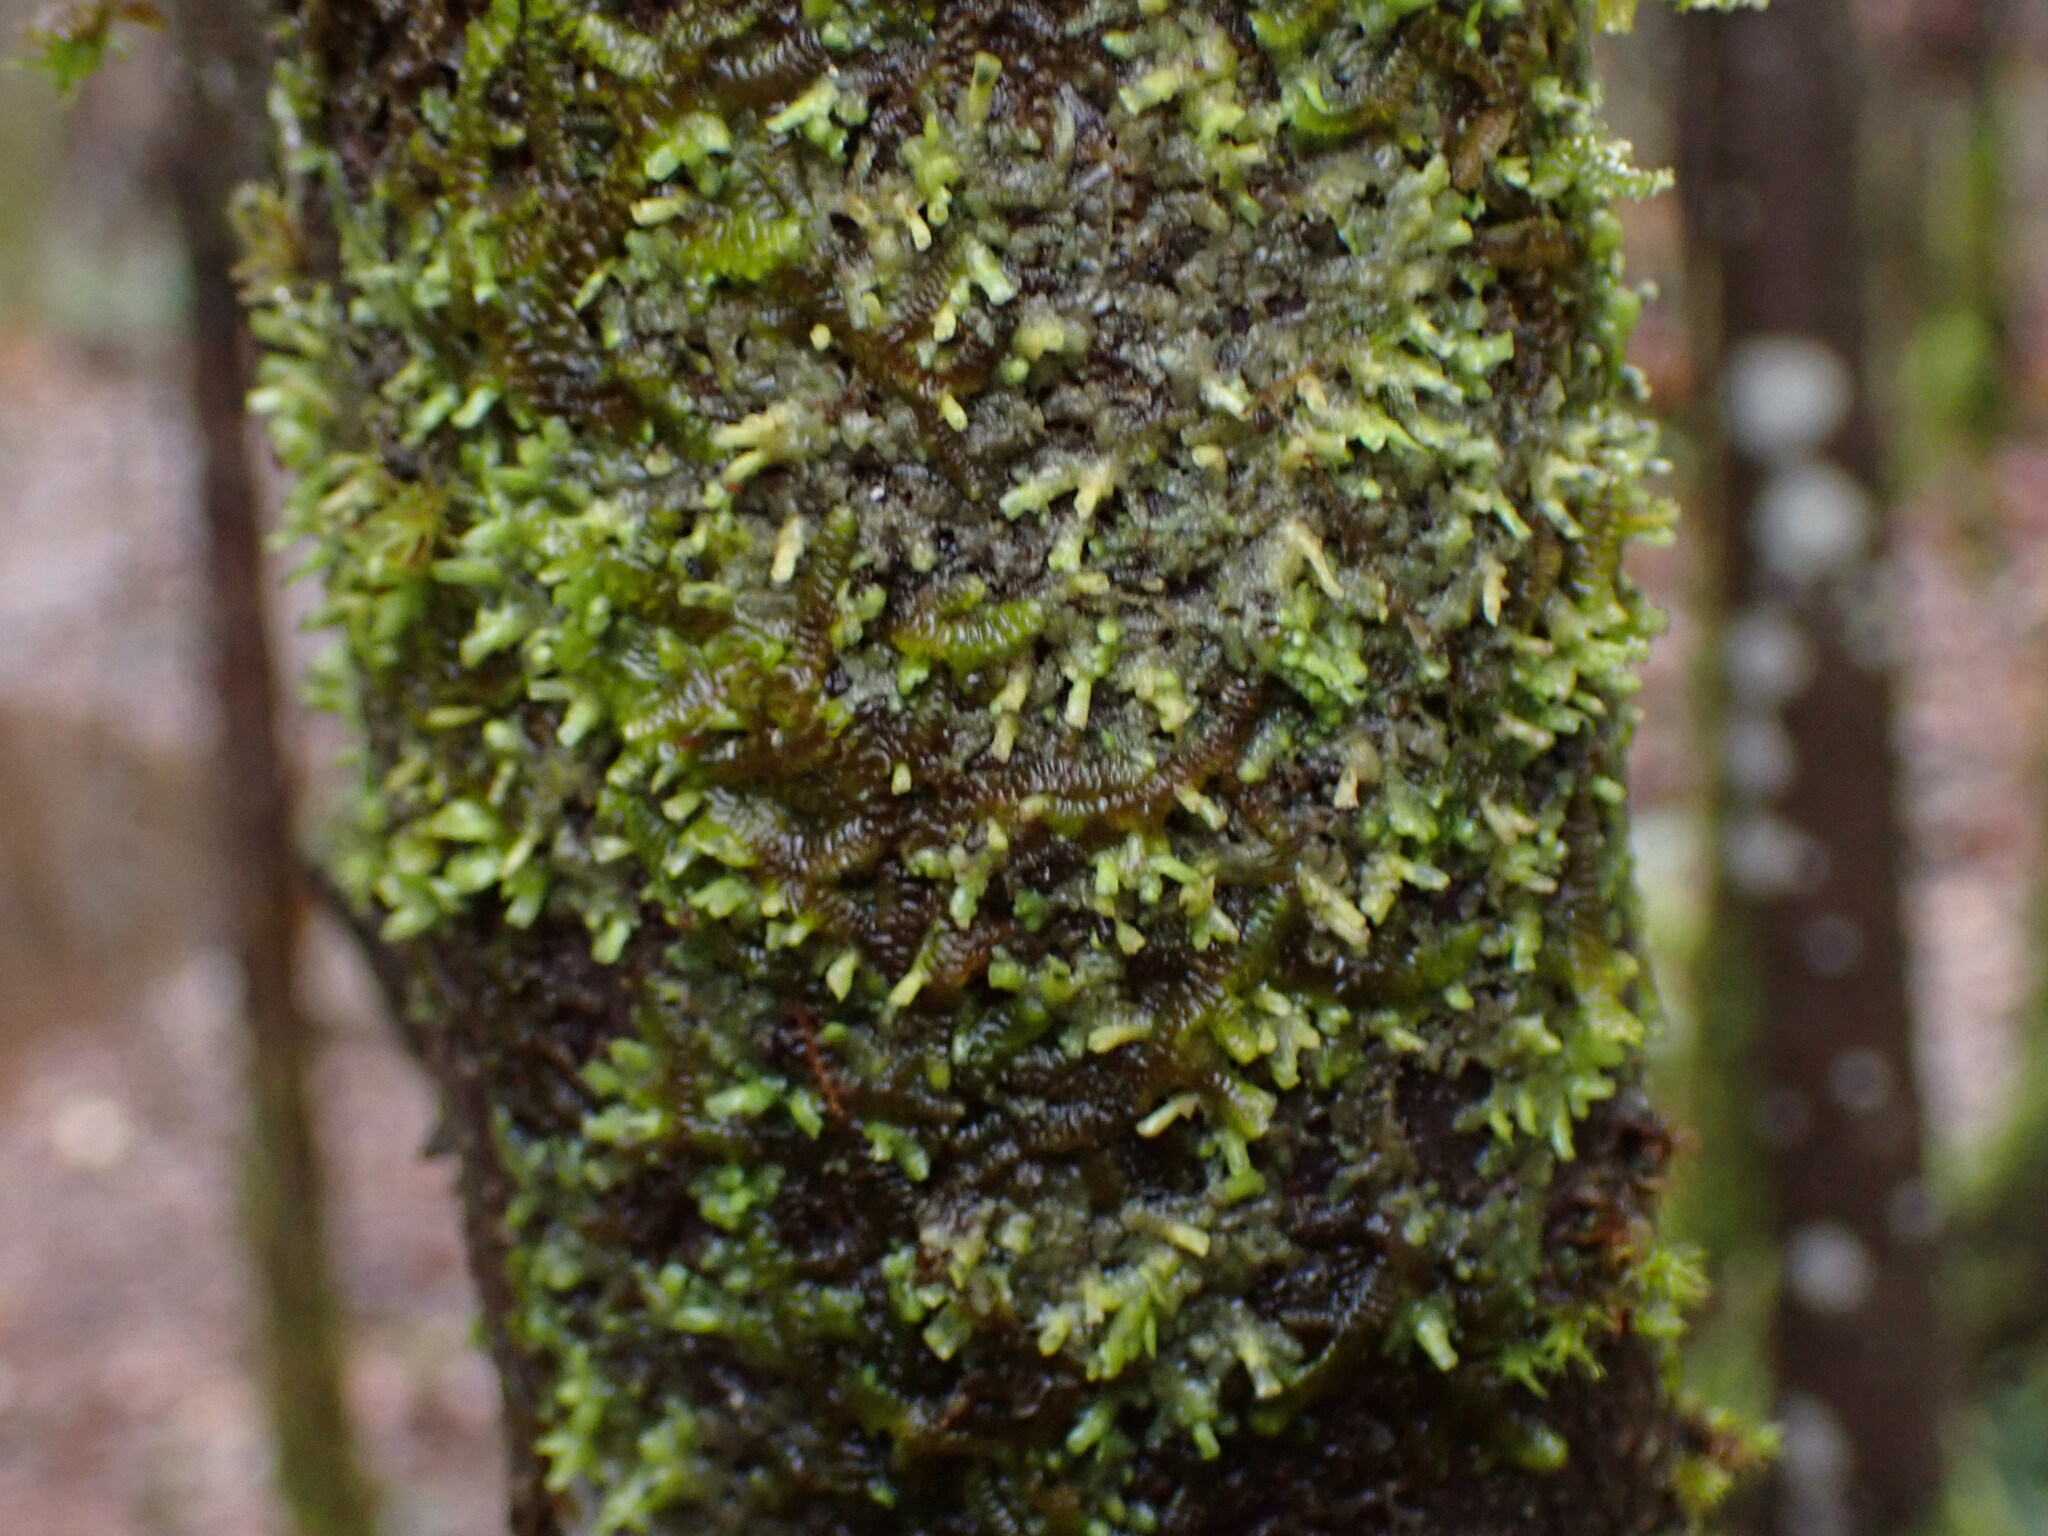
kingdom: Plantae
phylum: Marchantiophyta
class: Jungermanniopsida
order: Porellales
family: Radulaceae
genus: Radula
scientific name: Radula complanata
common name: Flat-leaved scalewort
